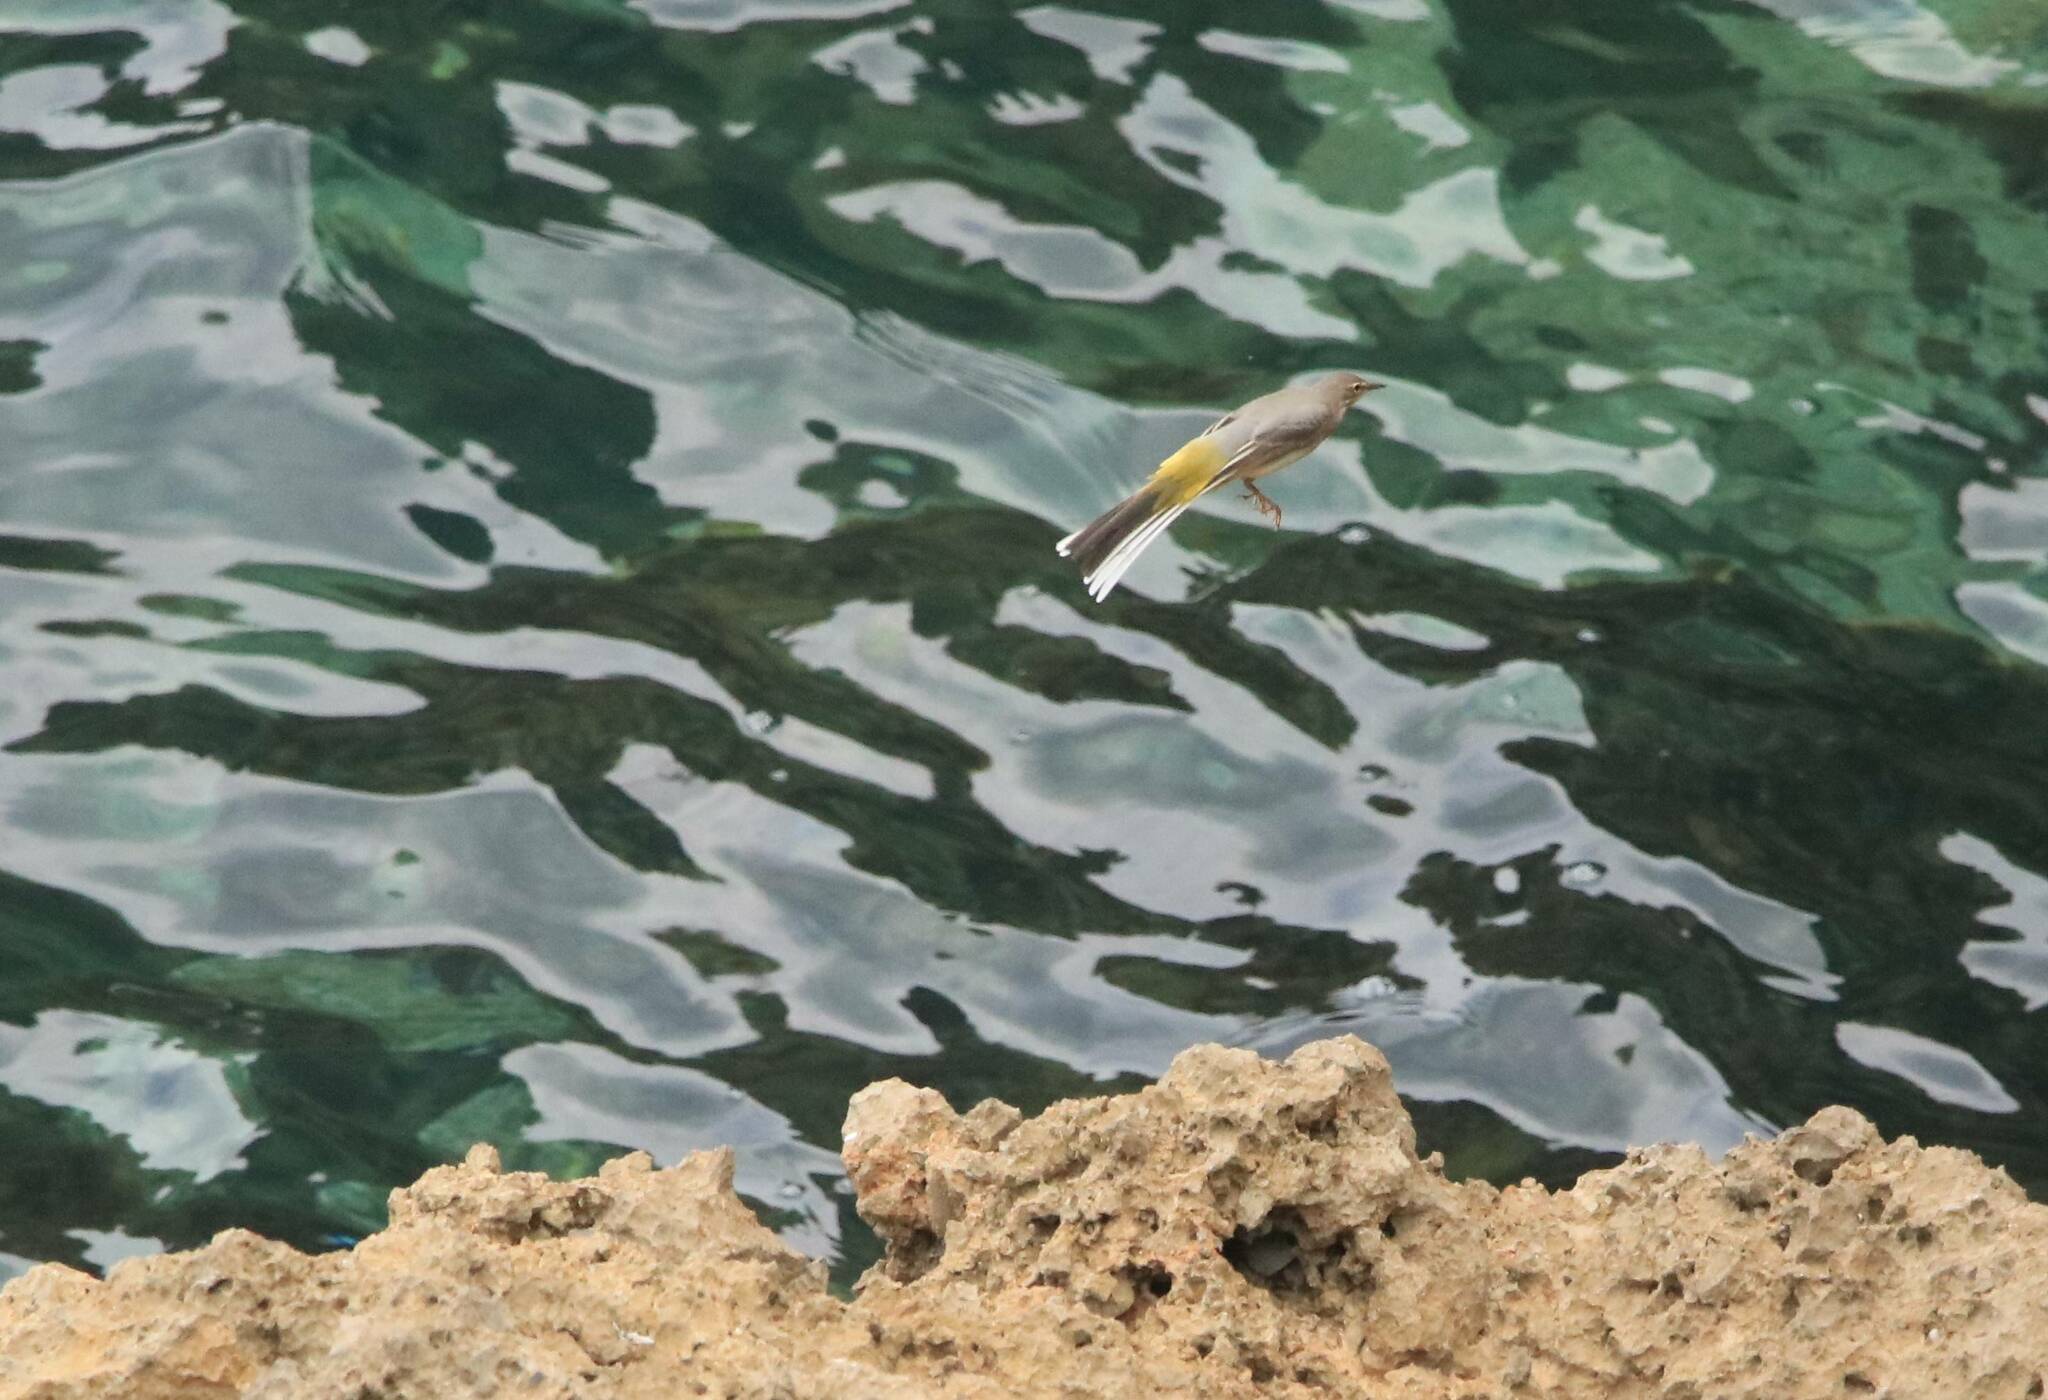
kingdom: Animalia
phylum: Chordata
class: Aves
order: Passeriformes
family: Motacillidae
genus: Motacilla
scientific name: Motacilla cinerea
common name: Grey wagtail
